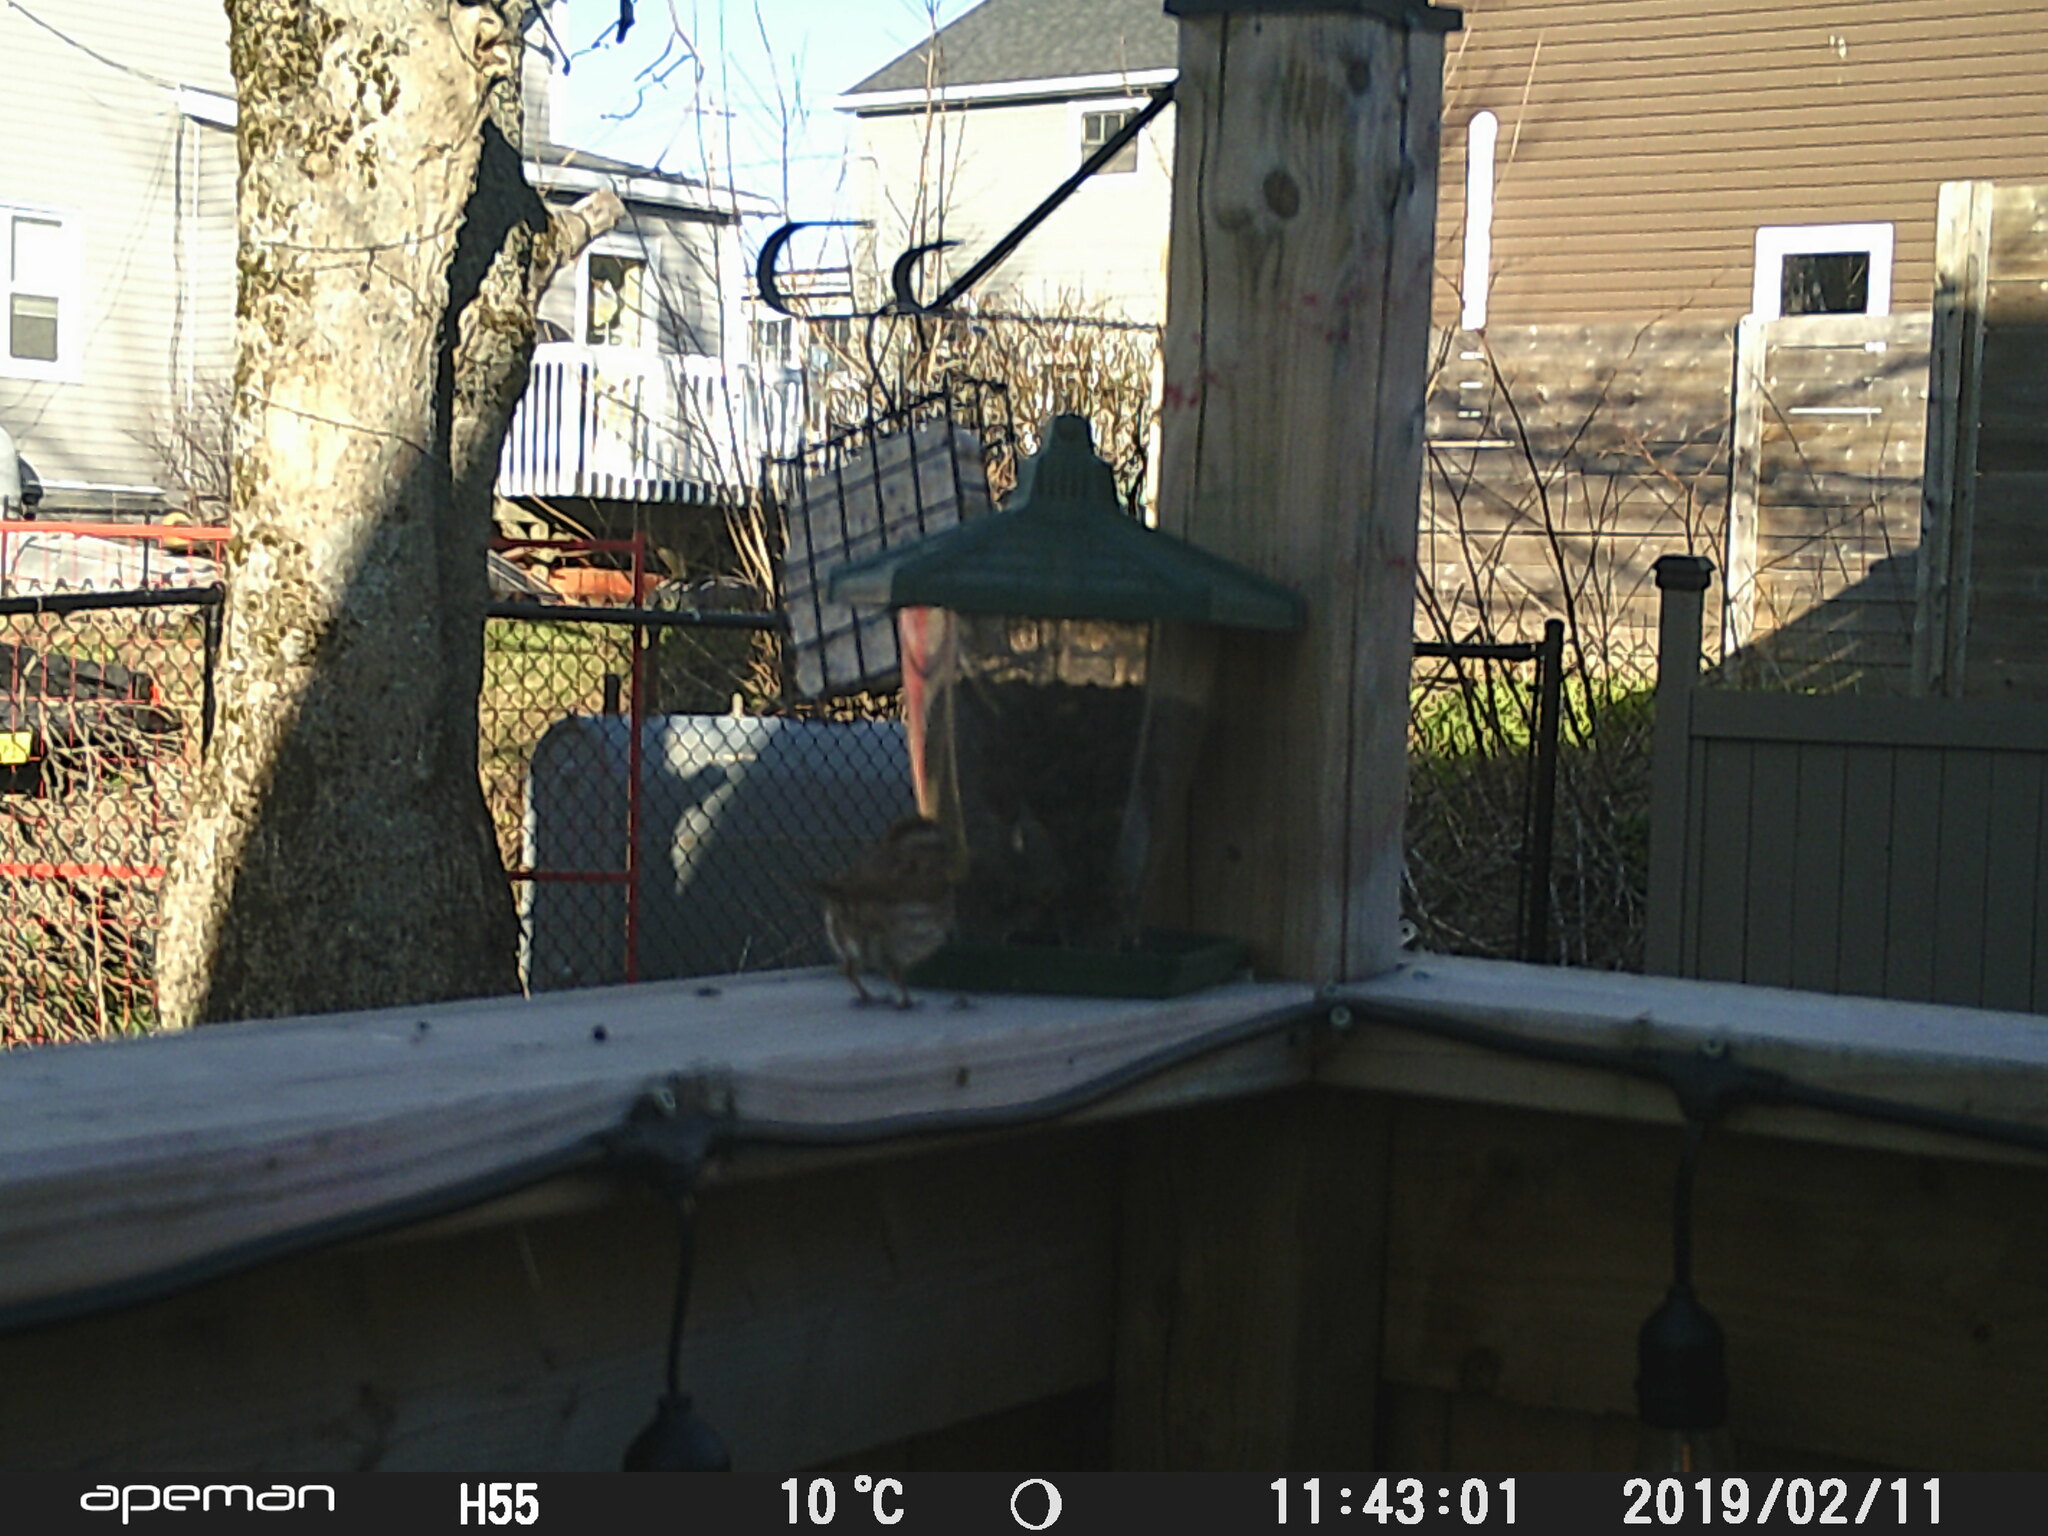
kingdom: Animalia
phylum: Chordata
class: Aves
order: Passeriformes
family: Passerellidae
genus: Melospiza
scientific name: Melospiza melodia
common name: Song sparrow
